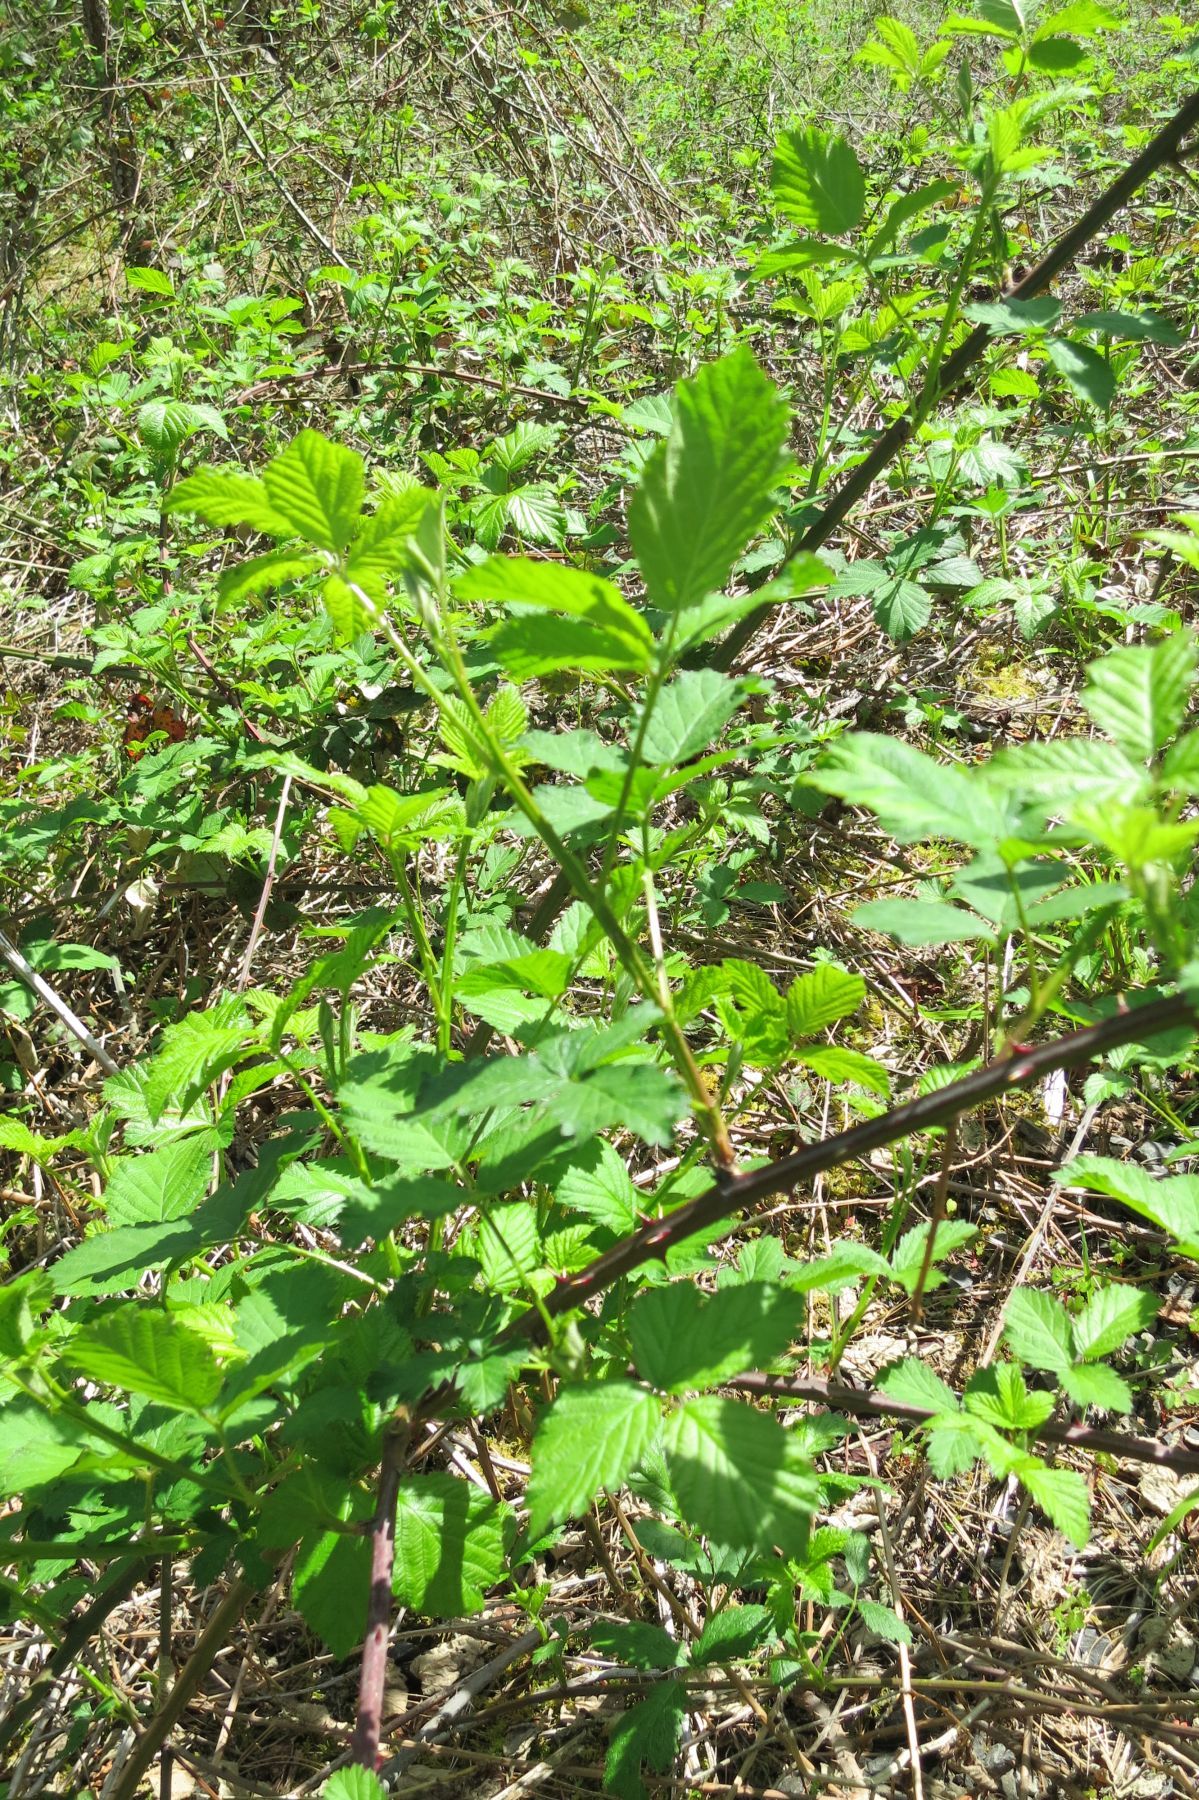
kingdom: Plantae
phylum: Tracheophyta
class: Magnoliopsida
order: Rosales
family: Rosaceae
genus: Rubus
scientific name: Rubus praecox
